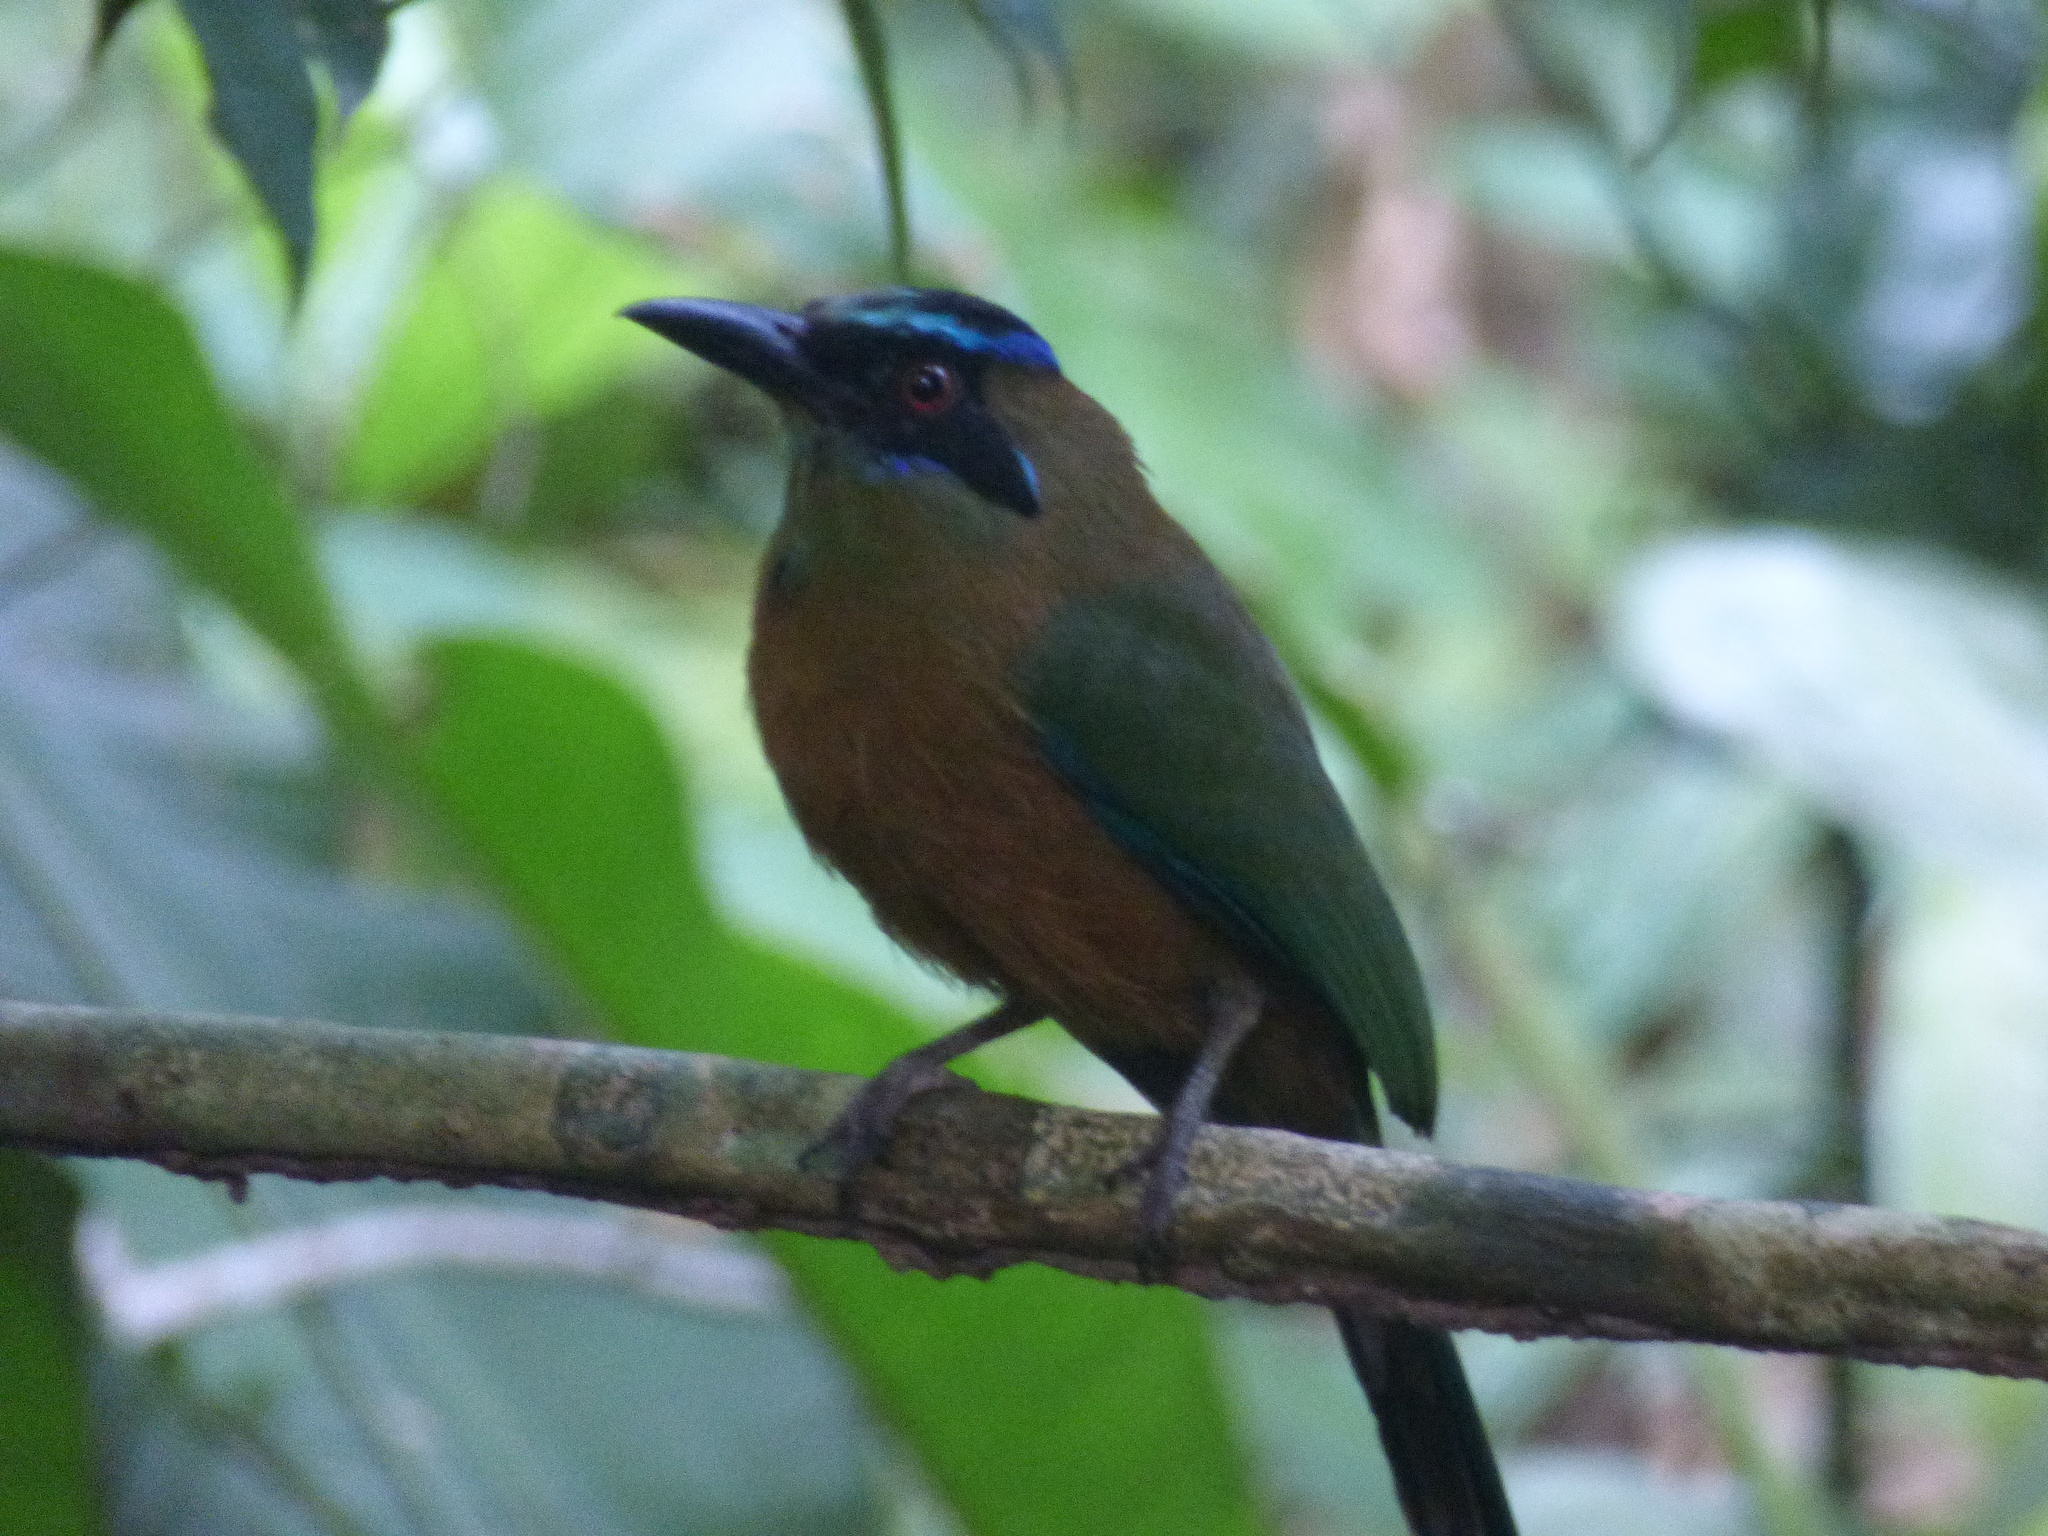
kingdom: Animalia
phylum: Chordata
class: Aves
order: Coraciiformes
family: Momotidae
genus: Momotus
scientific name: Momotus subrufescens
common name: Whooping motmot
